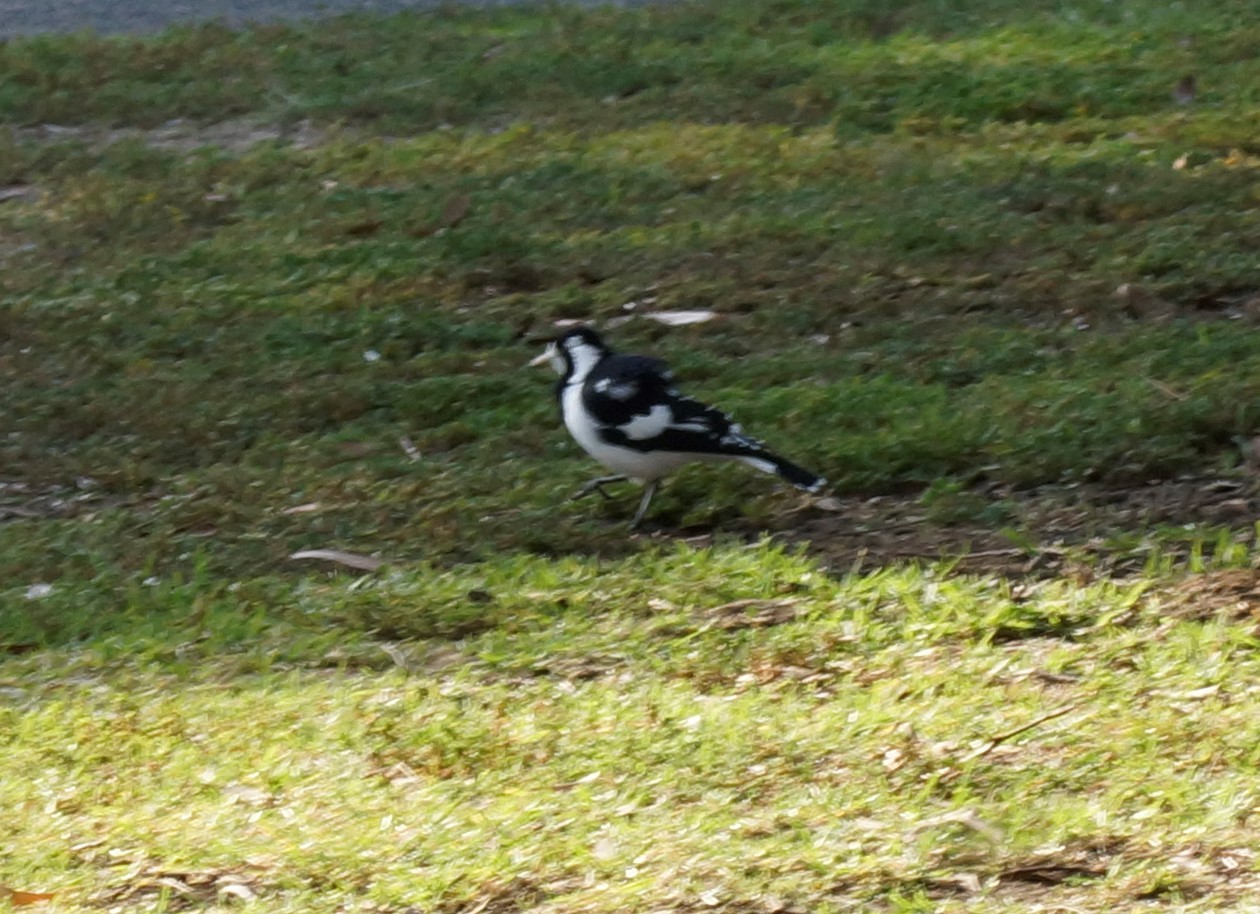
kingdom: Animalia
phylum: Chordata
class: Aves
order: Passeriformes
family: Monarchidae
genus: Grallina
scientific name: Grallina cyanoleuca
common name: Magpie-lark
